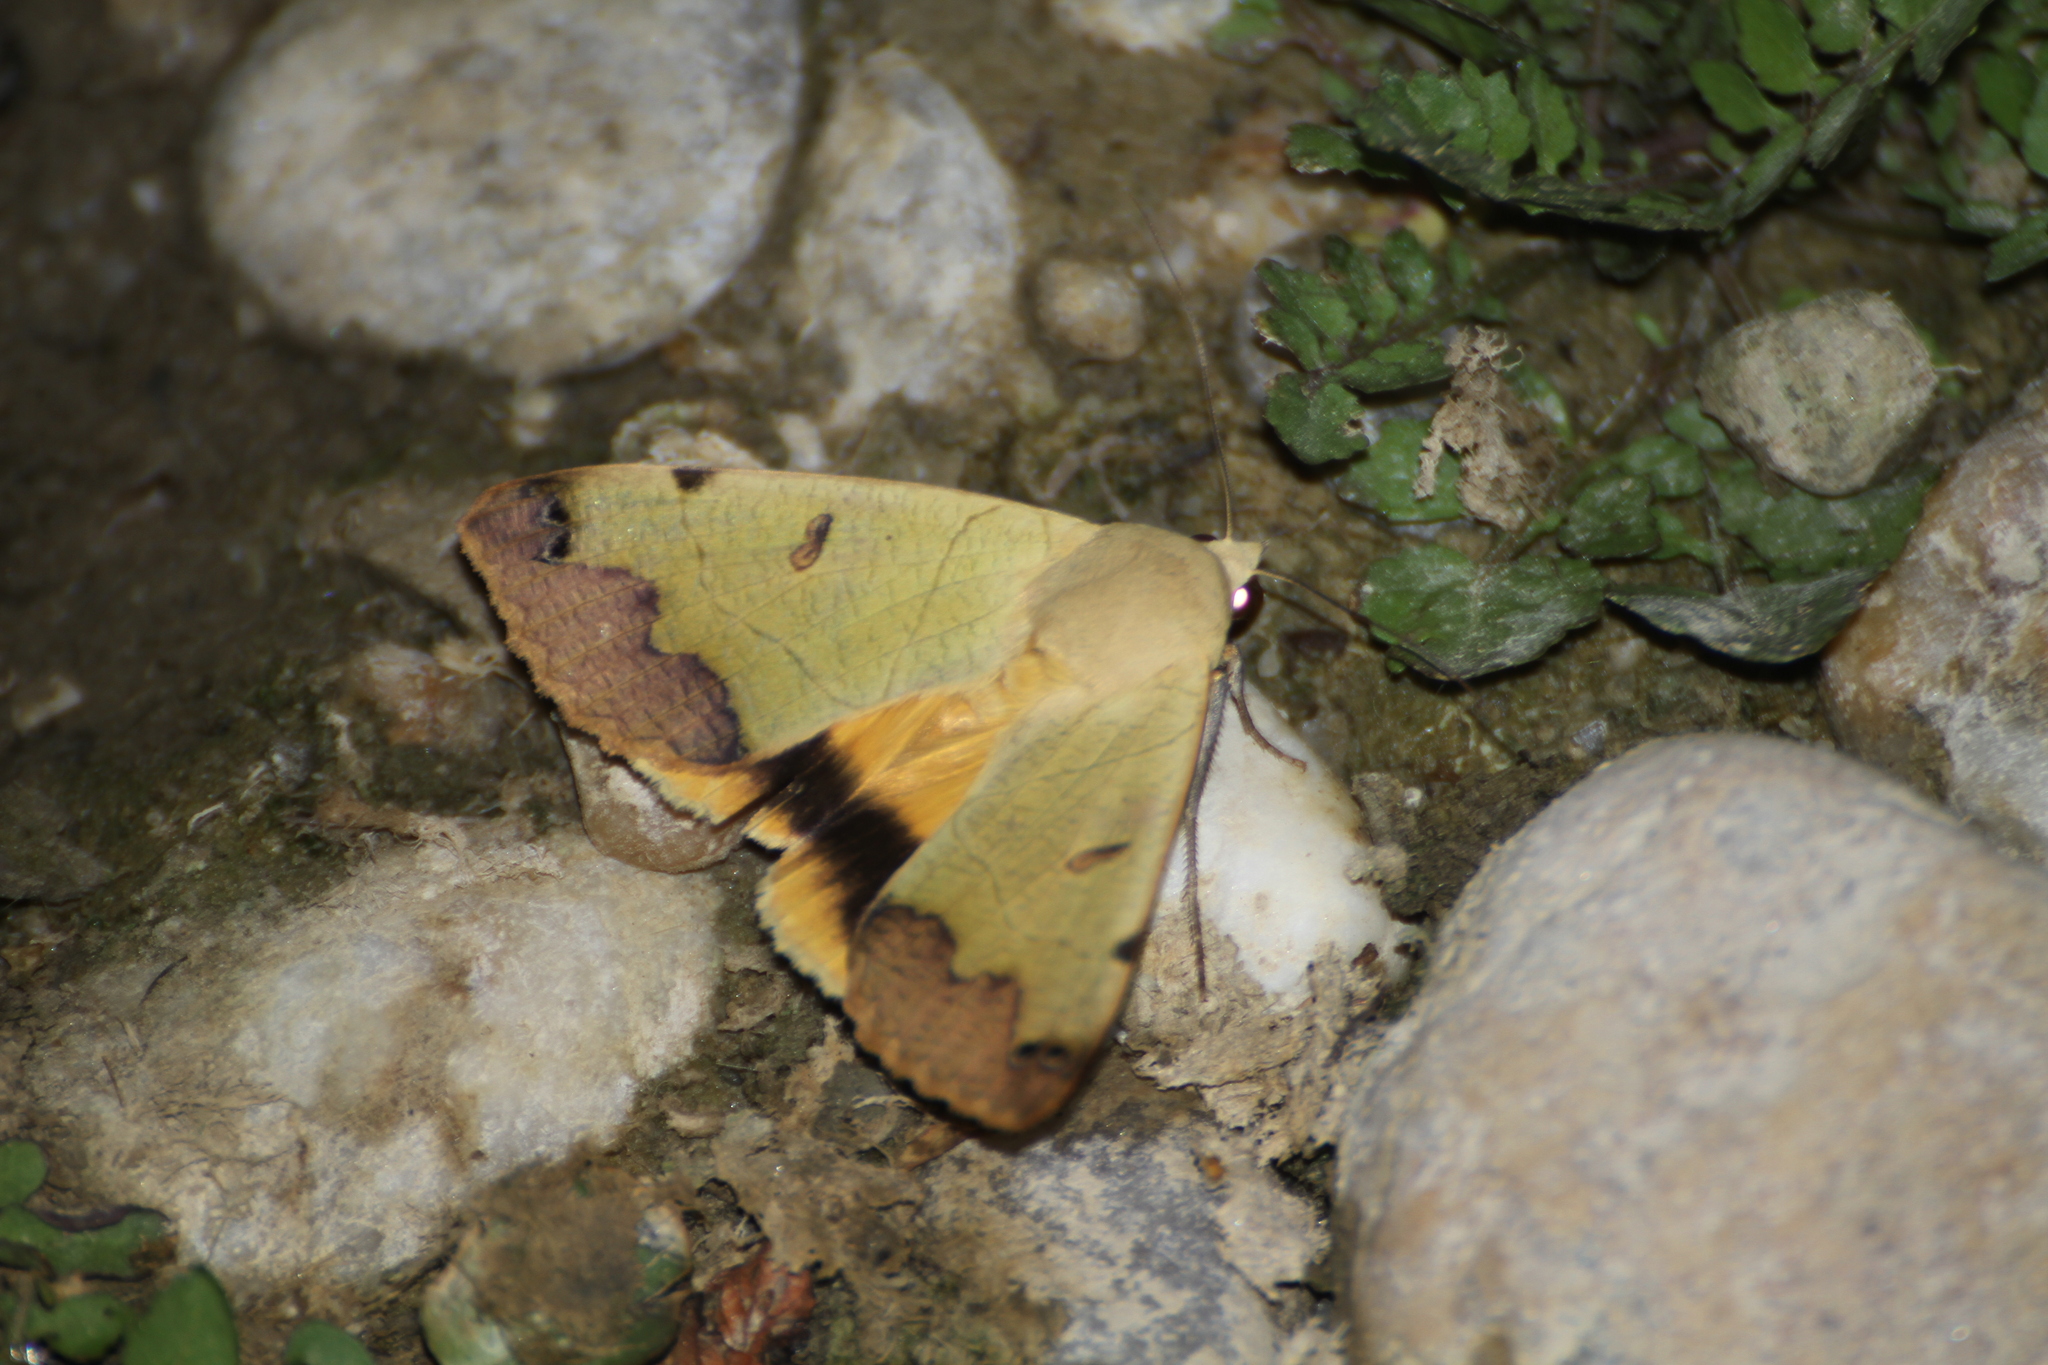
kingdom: Animalia
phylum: Arthropoda
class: Insecta
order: Lepidoptera
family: Erebidae
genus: Ophiusa
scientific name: Ophiusa tirhaca
